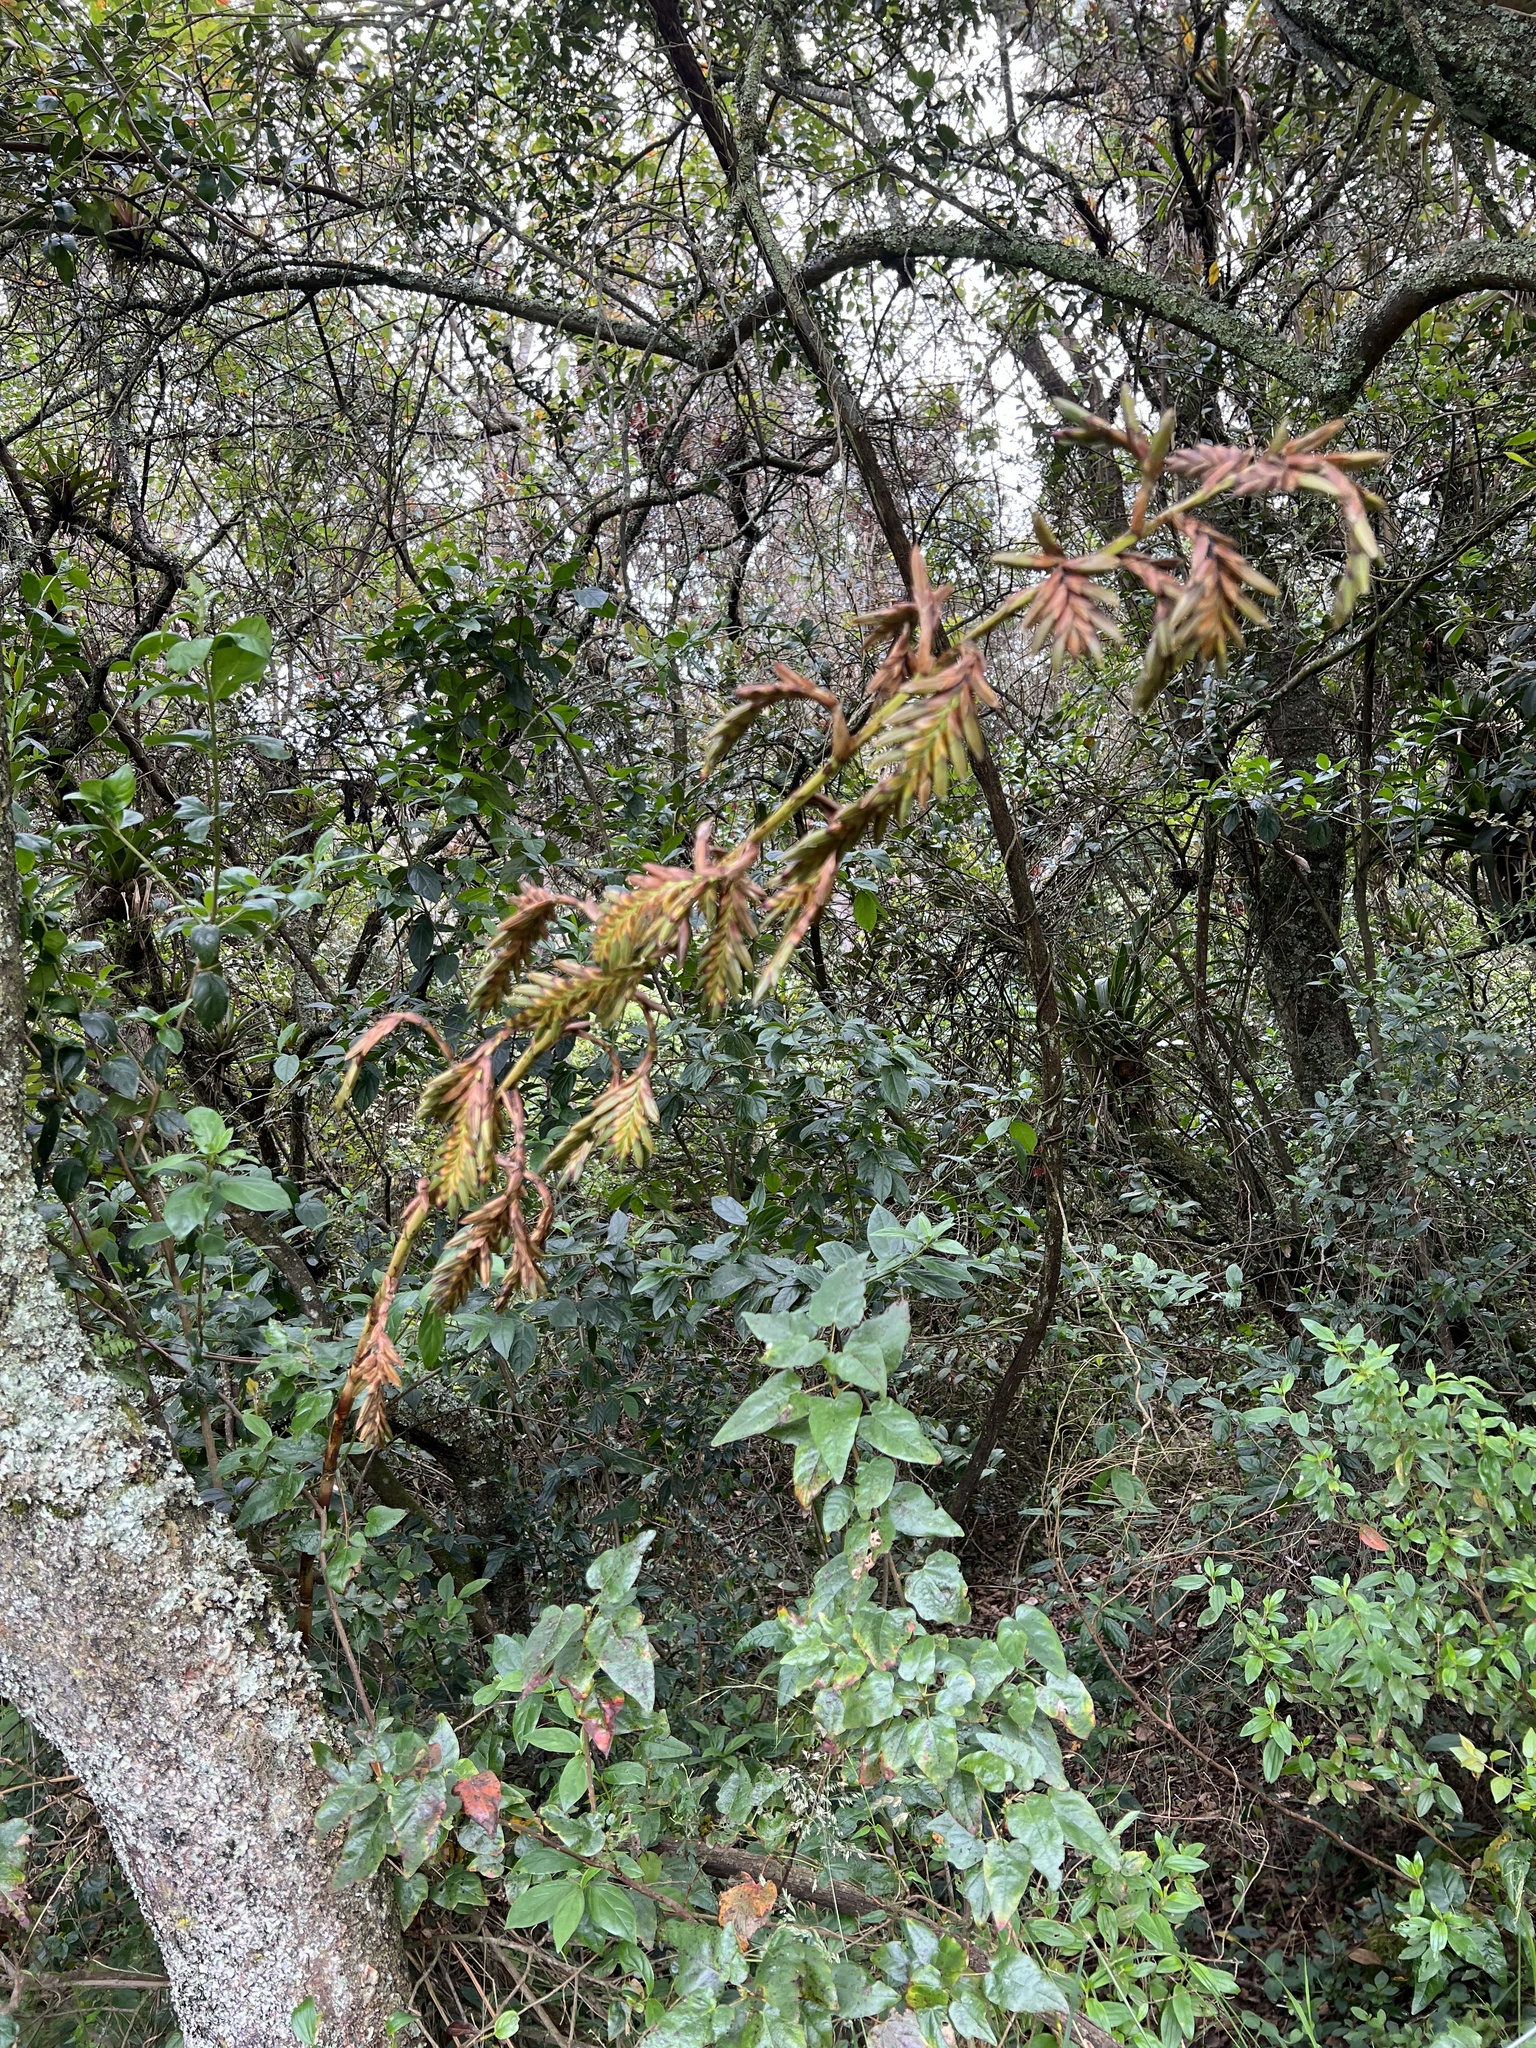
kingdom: Plantae
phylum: Tracheophyta
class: Liliopsida
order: Poales
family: Bromeliaceae
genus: Tillandsia
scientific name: Tillandsia denudata
